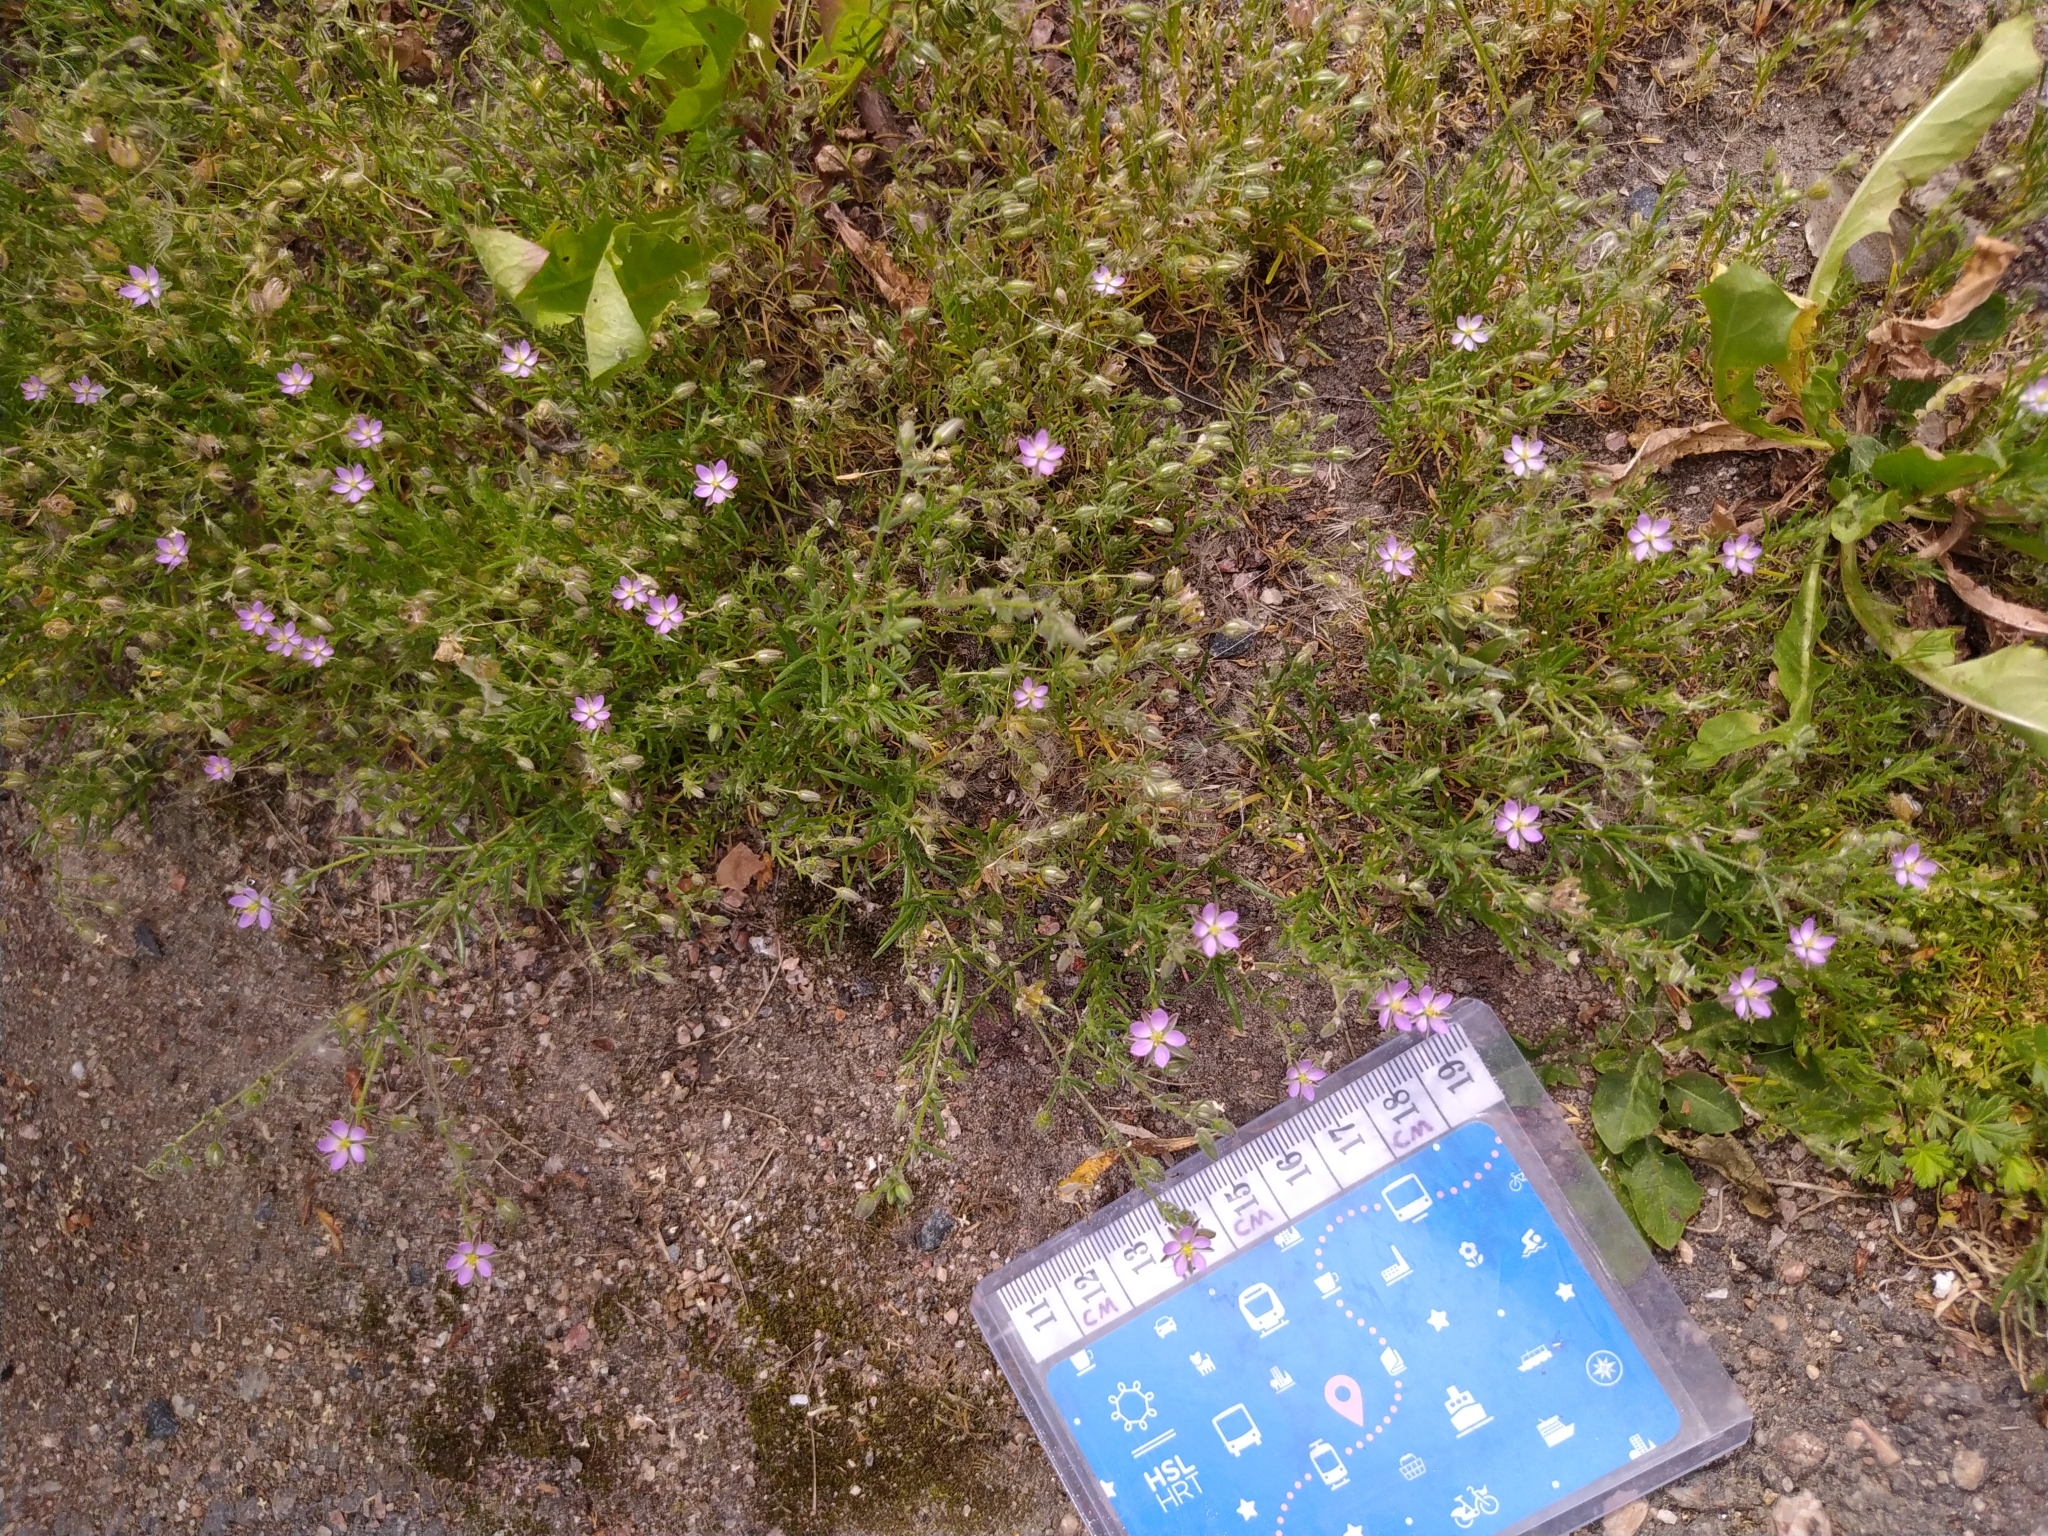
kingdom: Plantae
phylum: Tracheophyta
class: Magnoliopsida
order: Caryophyllales
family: Caryophyllaceae
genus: Spergularia
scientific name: Spergularia rubra
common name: Red sand-spurrey
